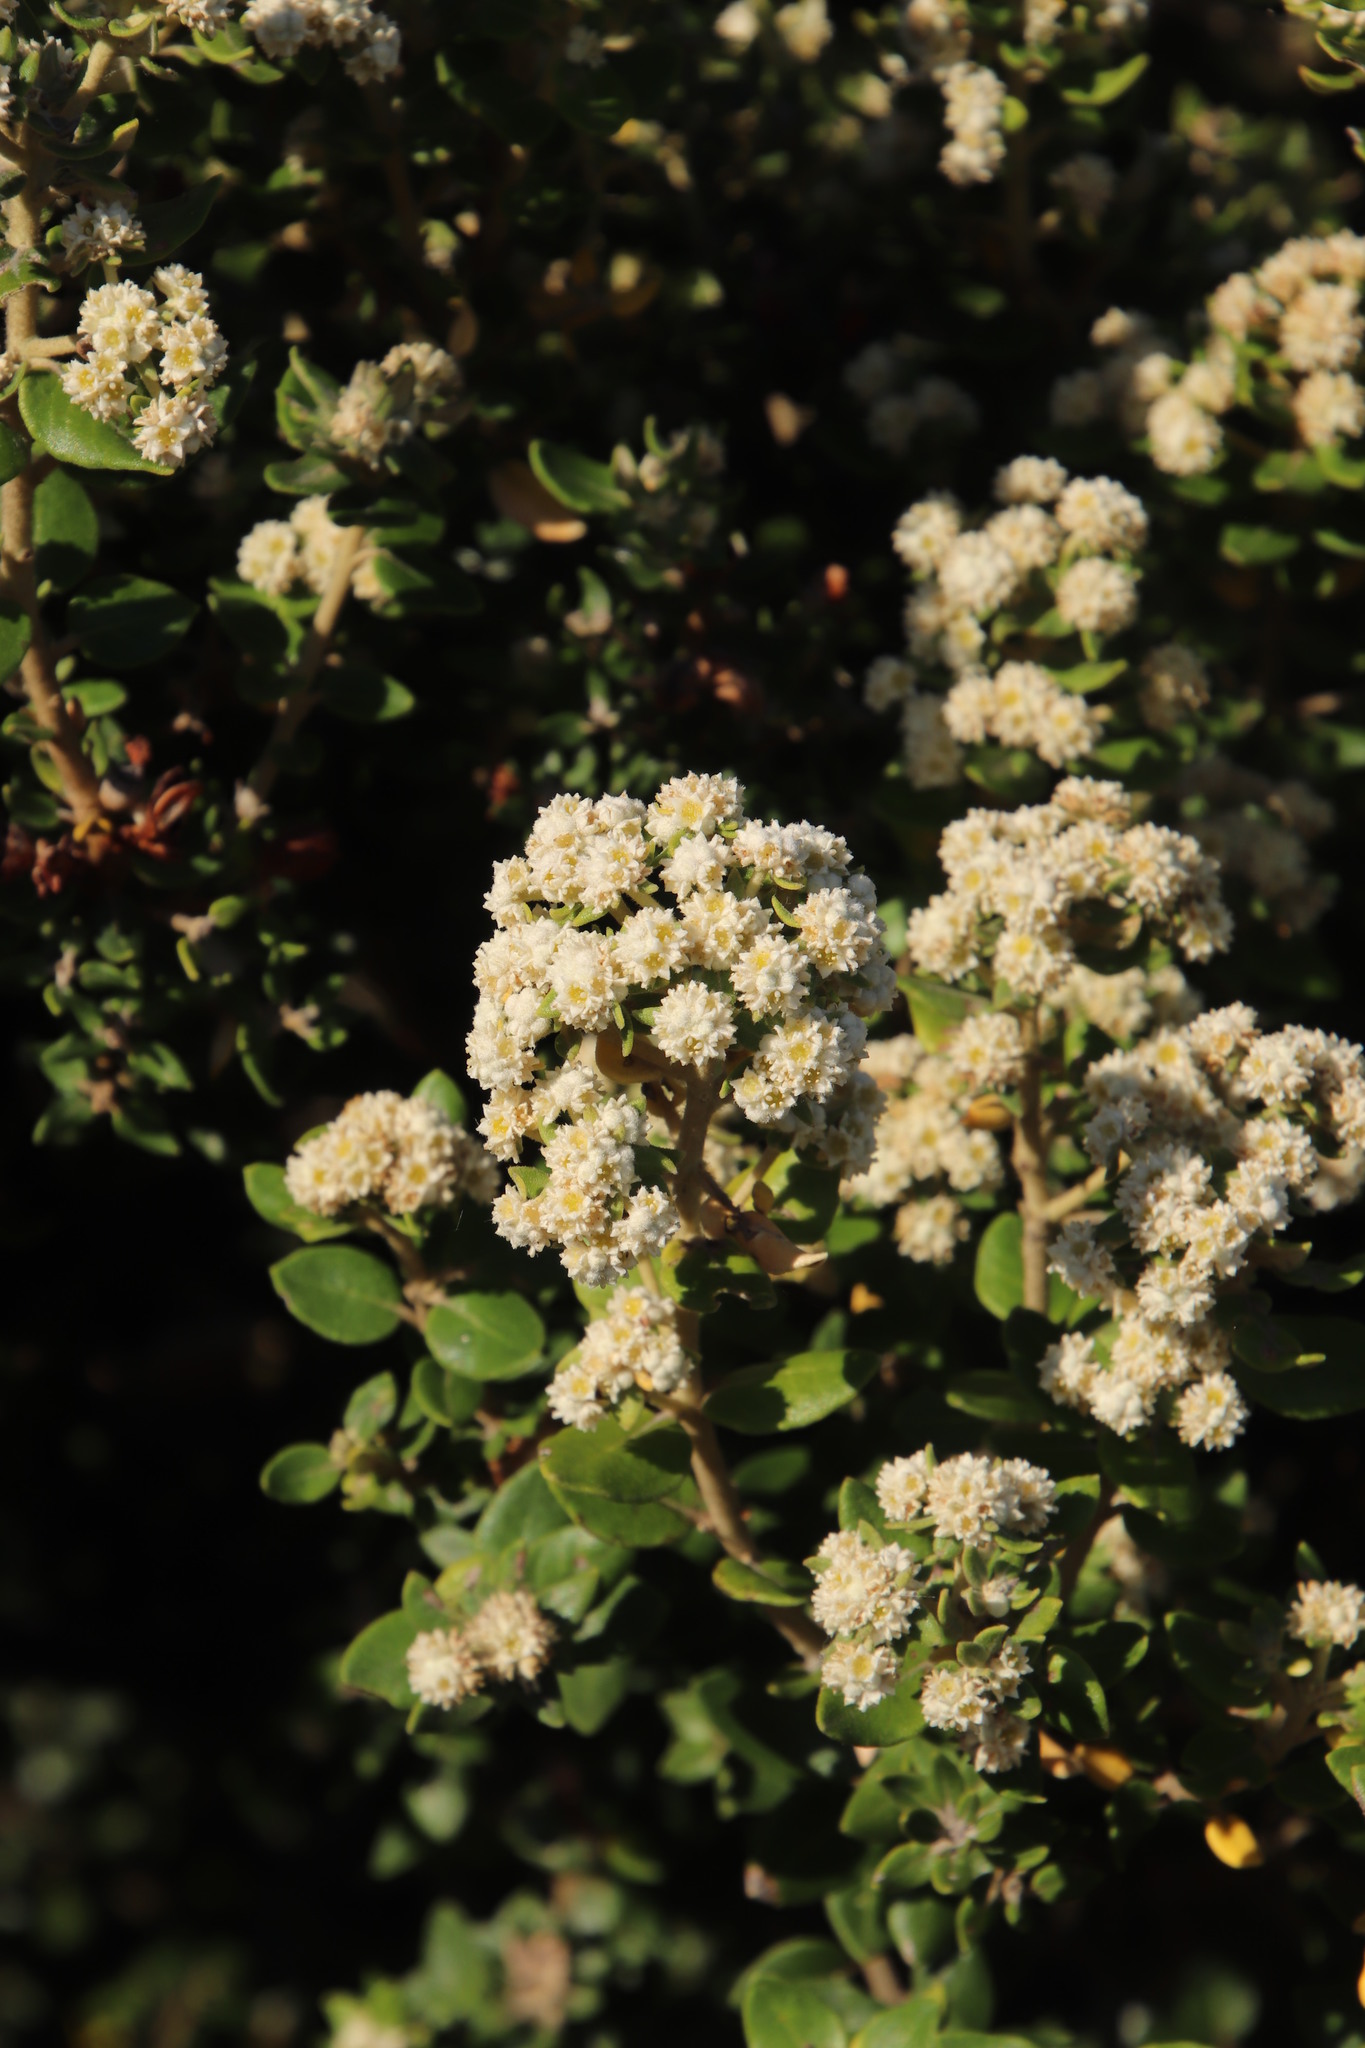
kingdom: Plantae
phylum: Tracheophyta
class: Magnoliopsida
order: Rosales
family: Rhamnaceae
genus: Phylica
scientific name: Phylica buxifolia
